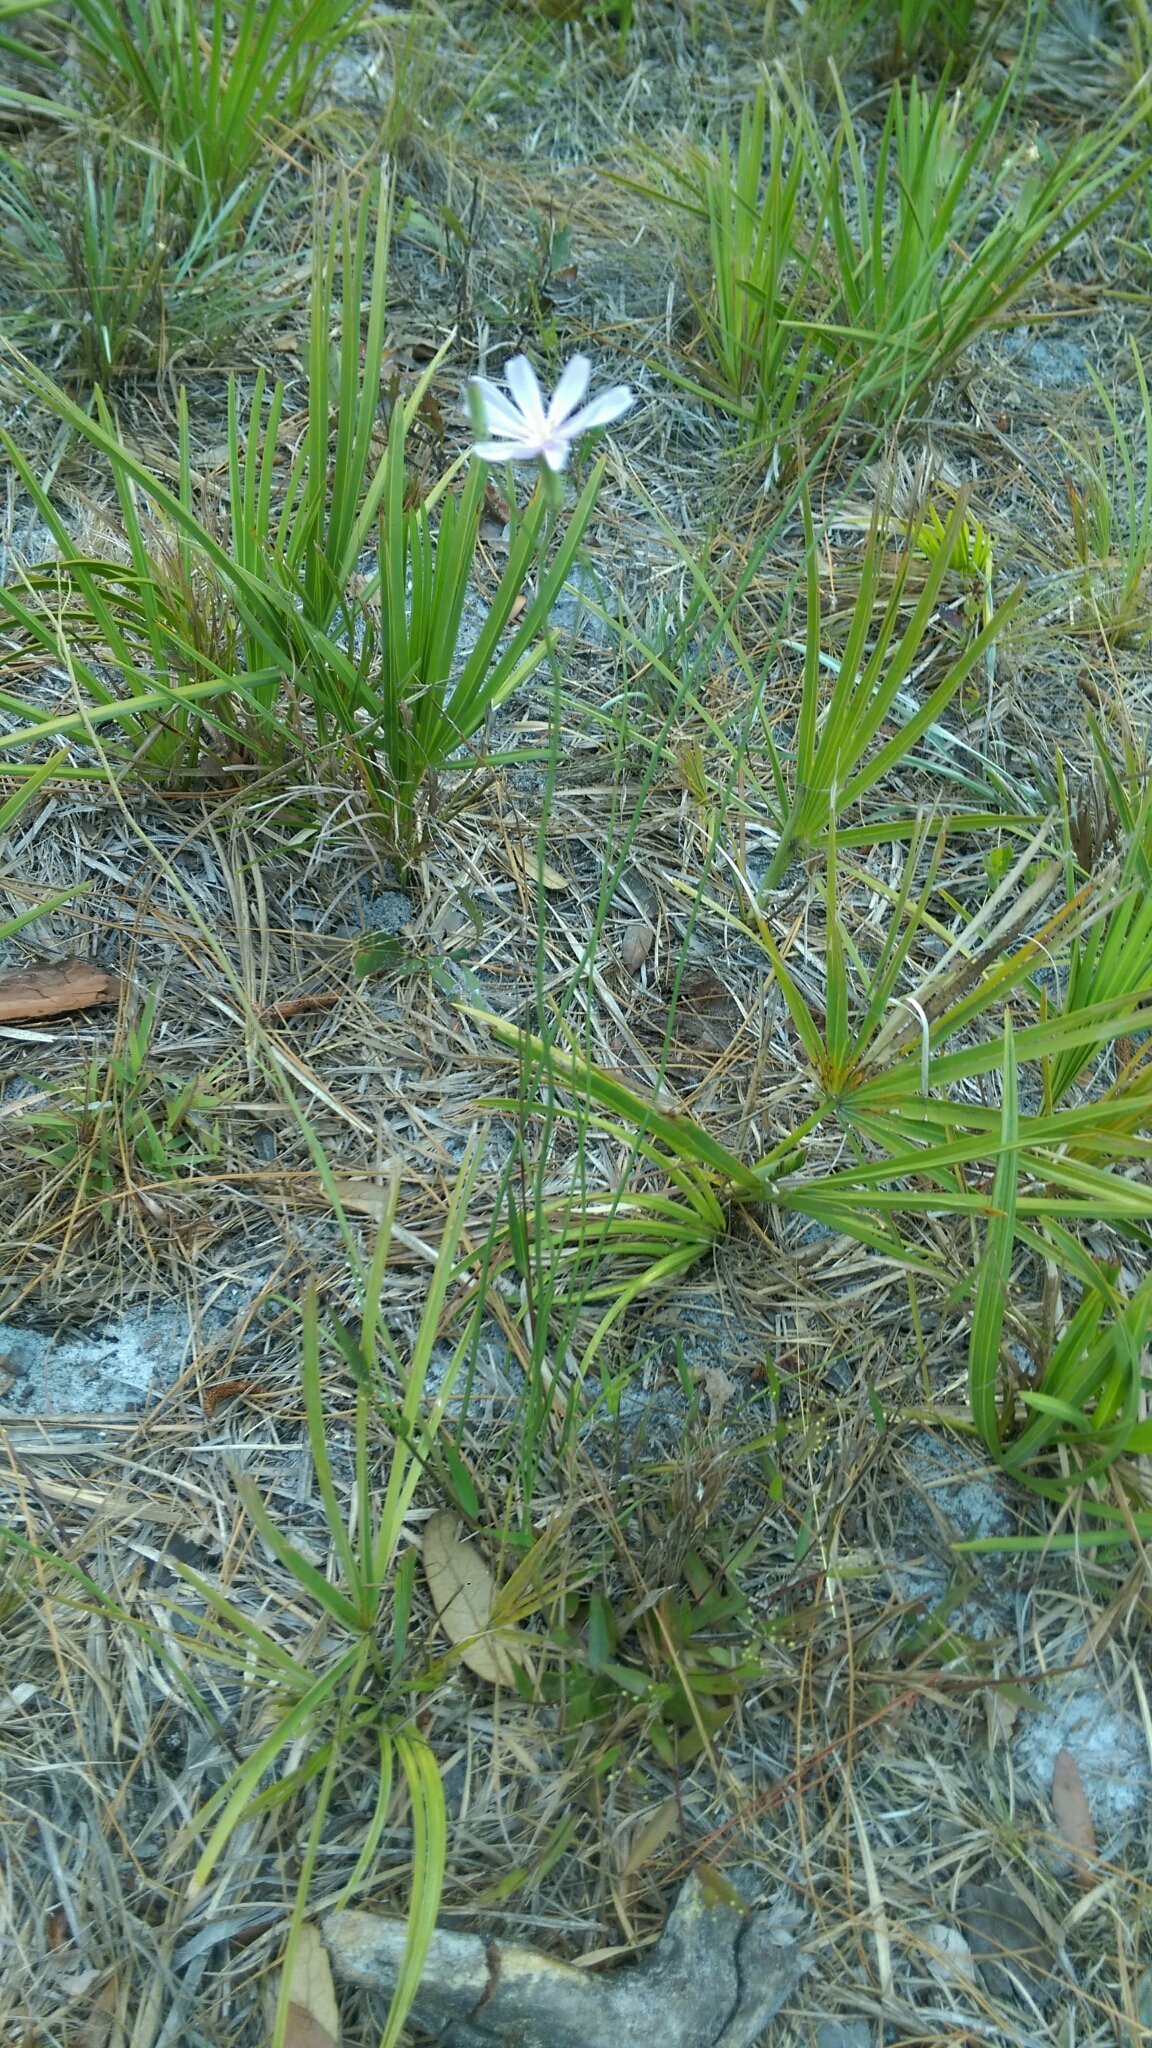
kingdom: Plantae
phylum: Tracheophyta
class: Magnoliopsida
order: Asterales
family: Asteraceae
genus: Lygodesmia
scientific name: Lygodesmia aphylla
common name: Rose-rush
